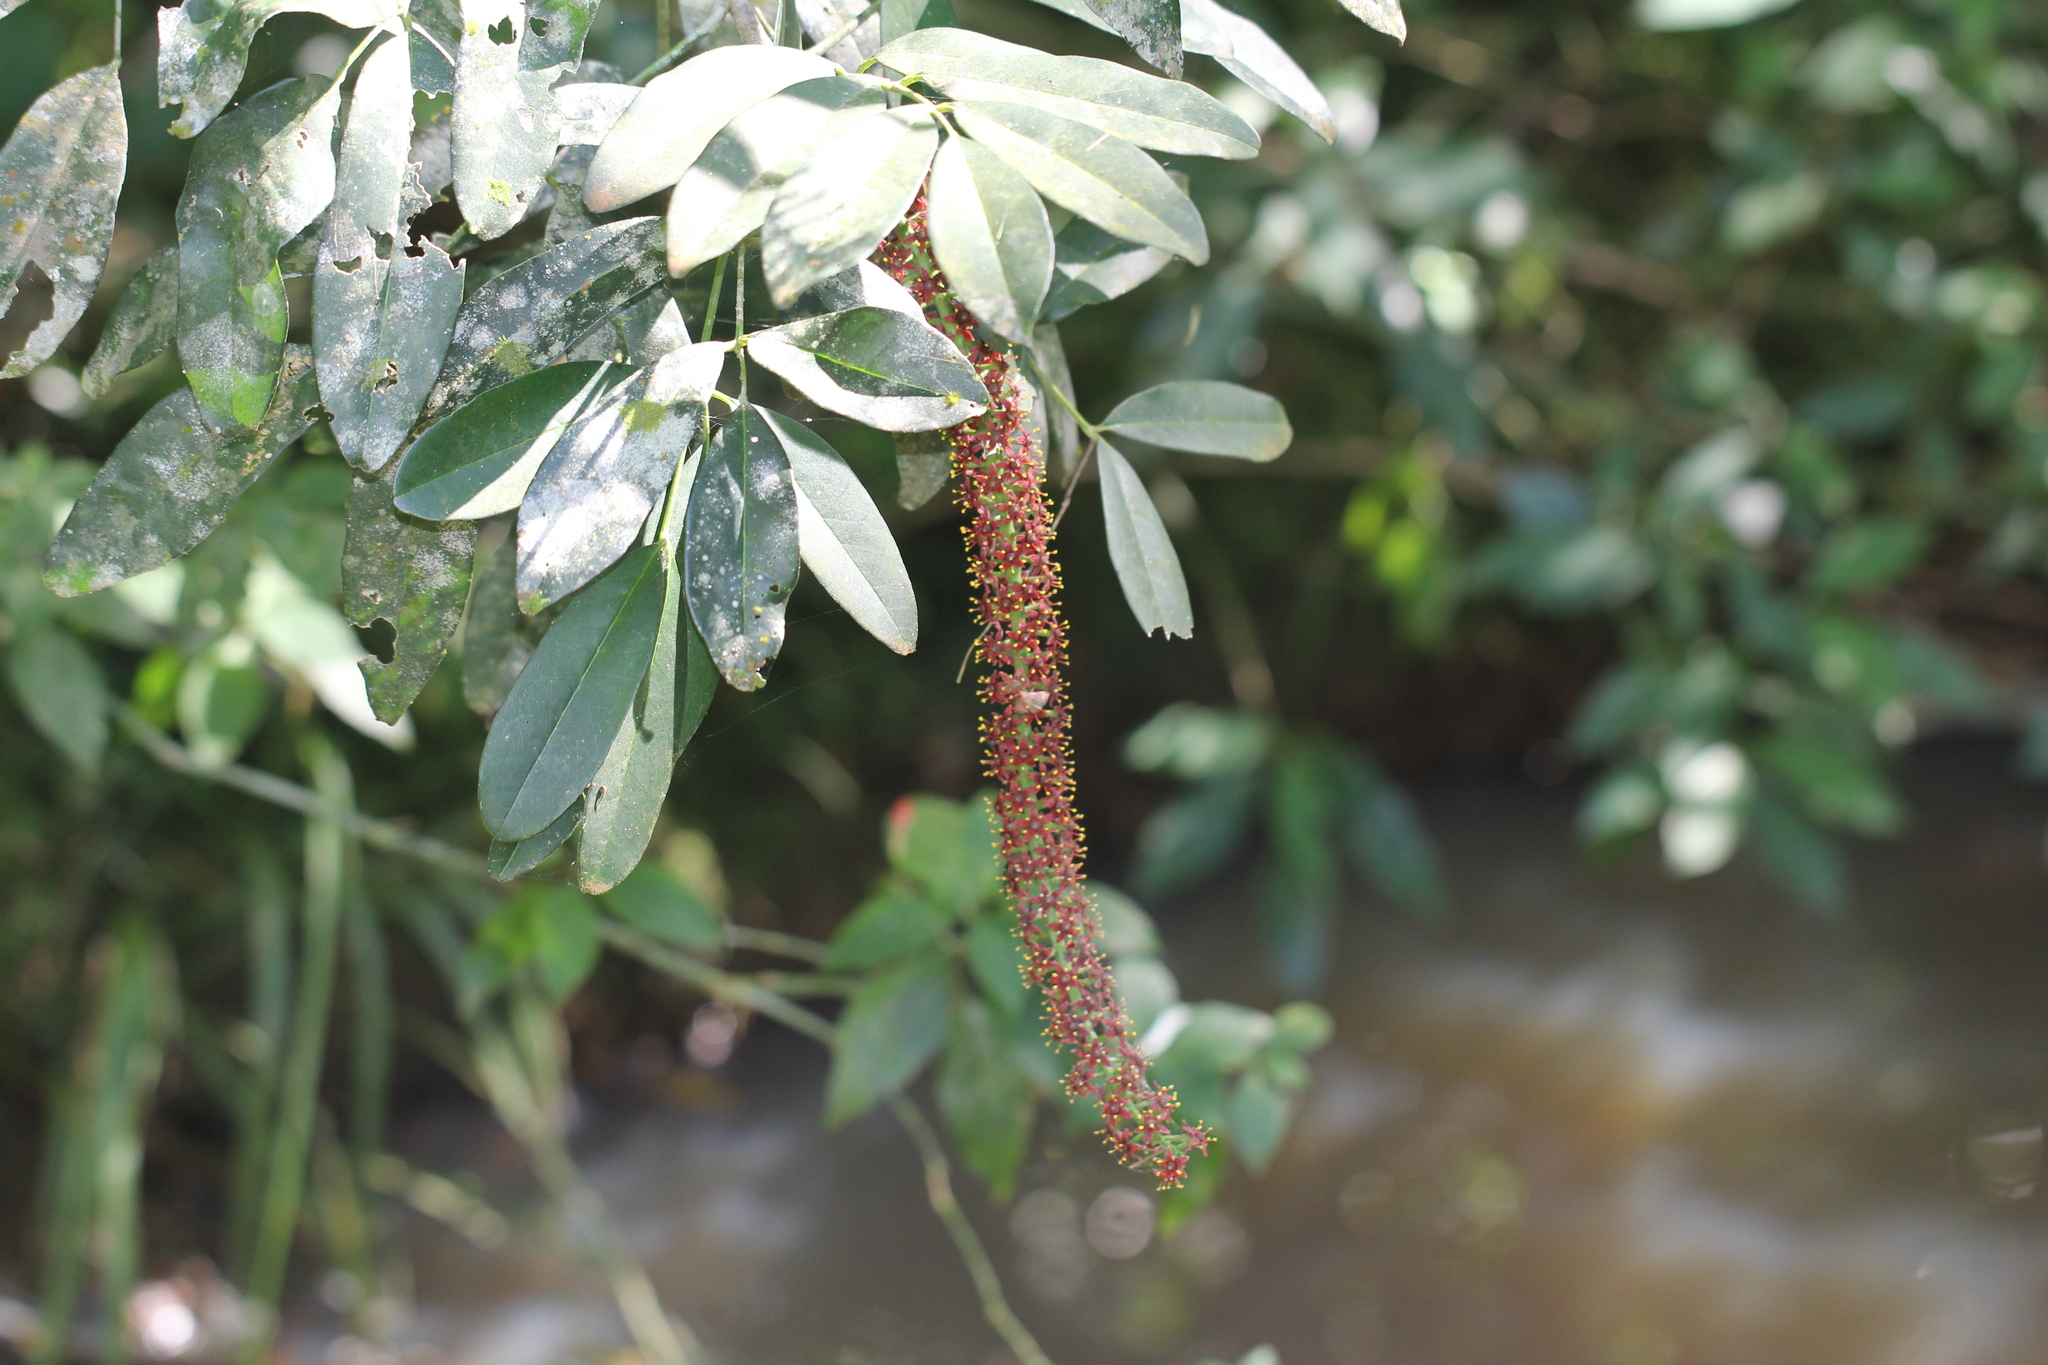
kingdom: Plantae
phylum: Tracheophyta
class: Magnoliopsida
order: Sapindales
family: Rutaceae
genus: Pilocarpus
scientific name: Pilocarpus pennatifolius
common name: Paraguay jaborandi
